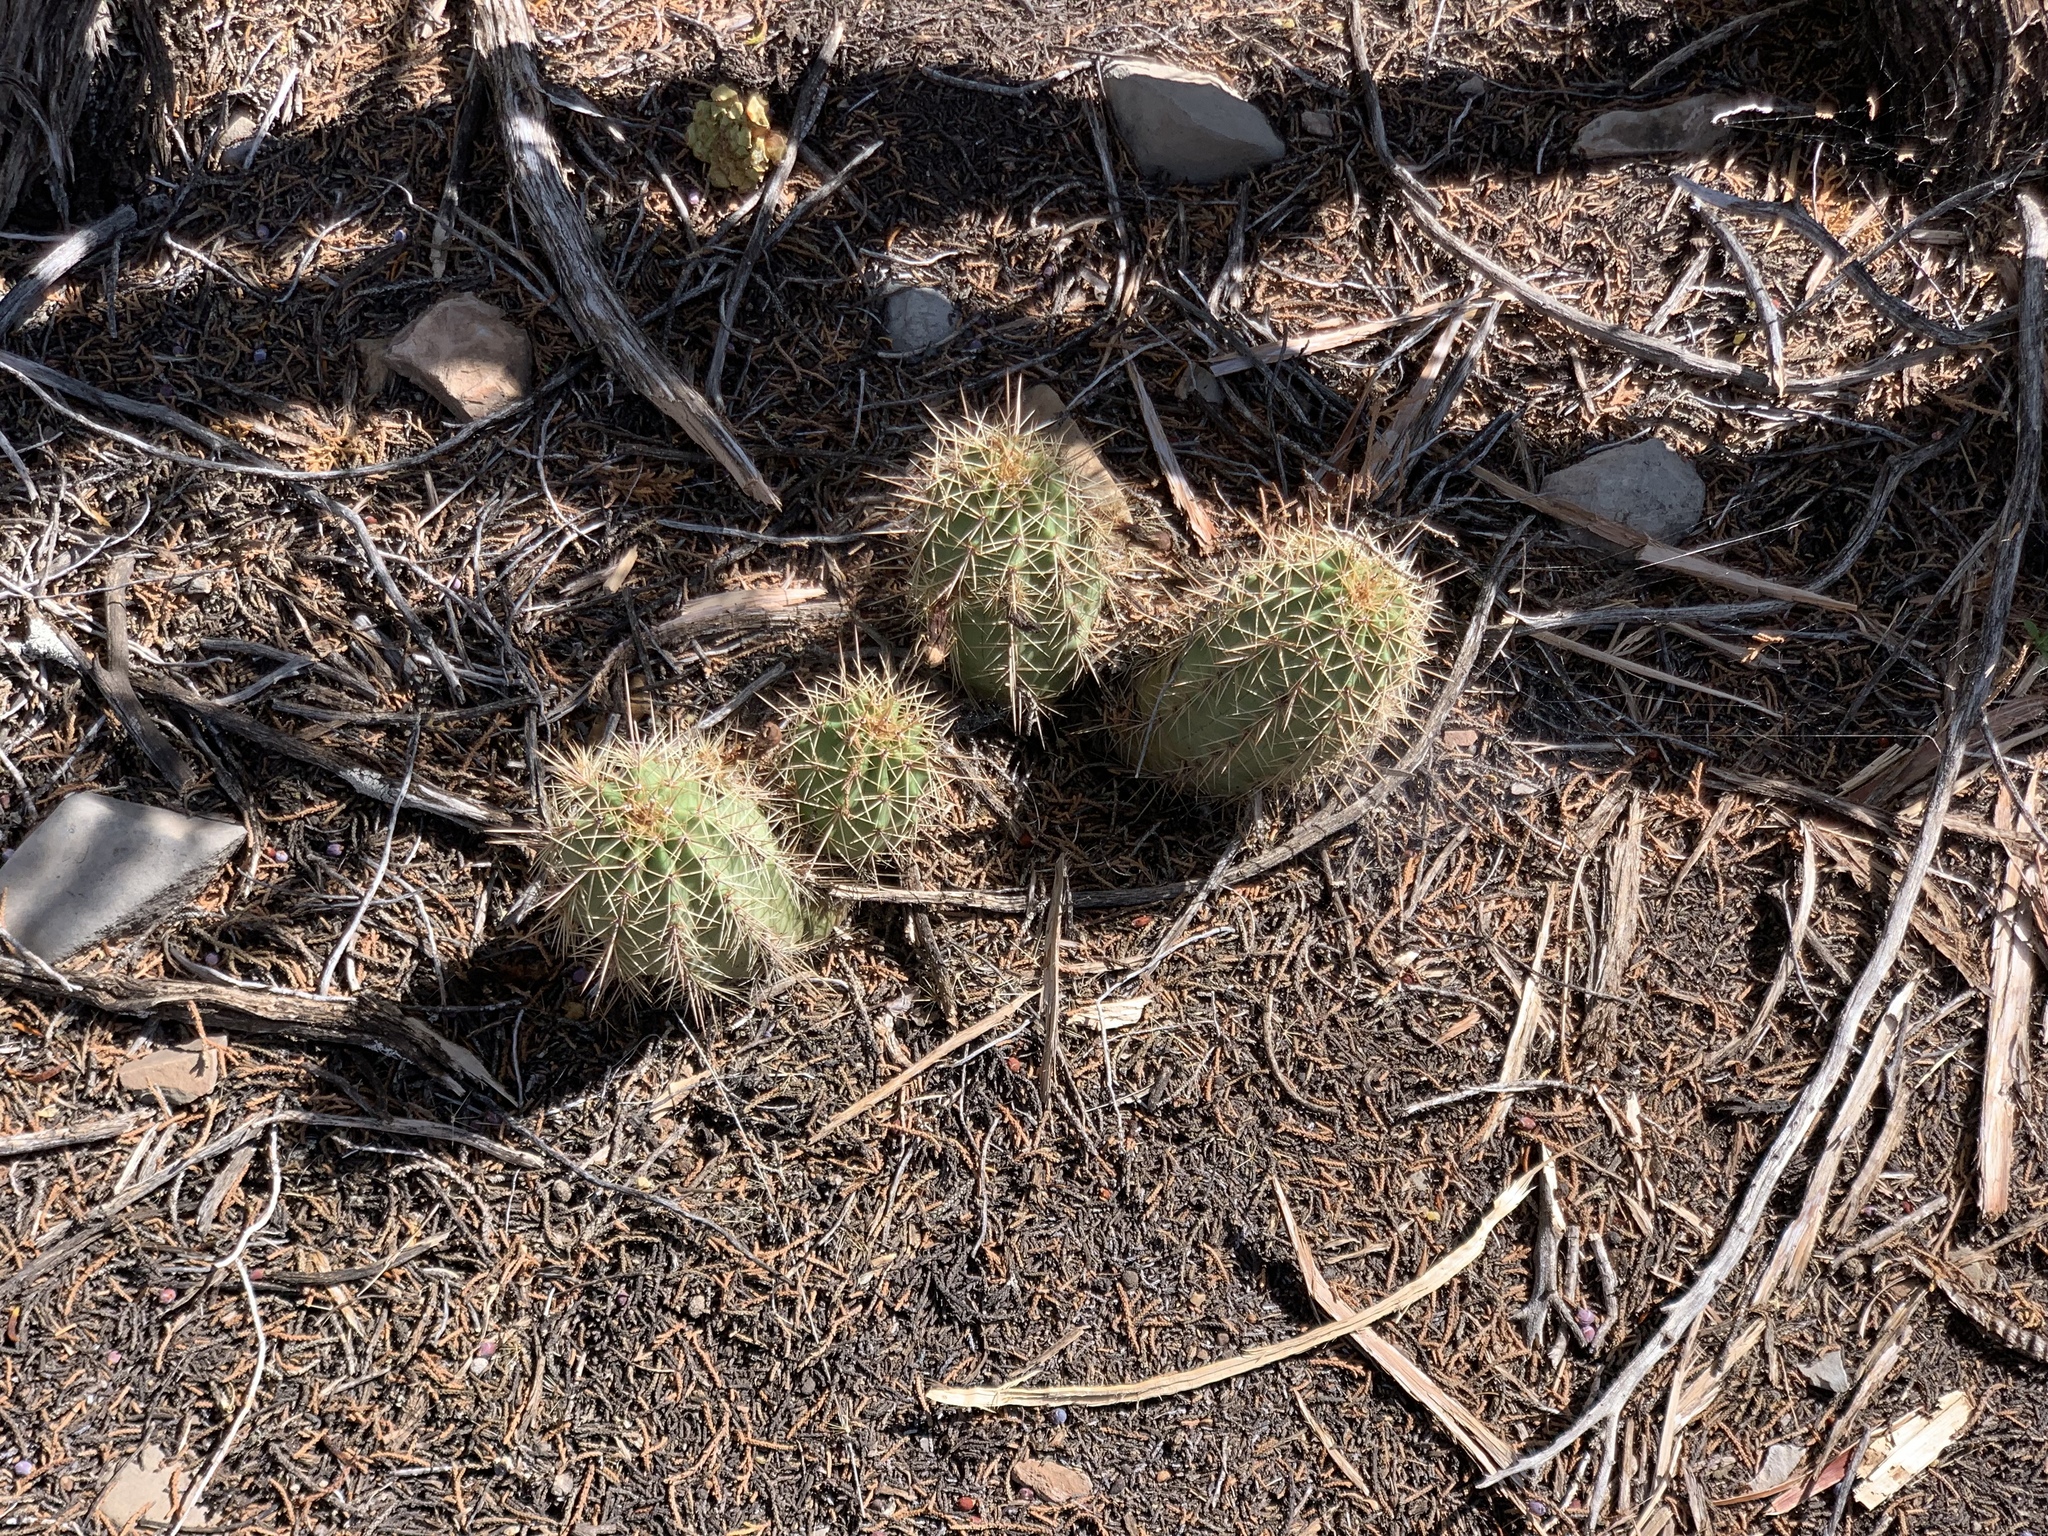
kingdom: Plantae
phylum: Tracheophyta
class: Magnoliopsida
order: Caryophyllales
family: Cactaceae
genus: Echinocereus
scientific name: Echinocereus coccineus
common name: Scarlet hedgehog cactus
